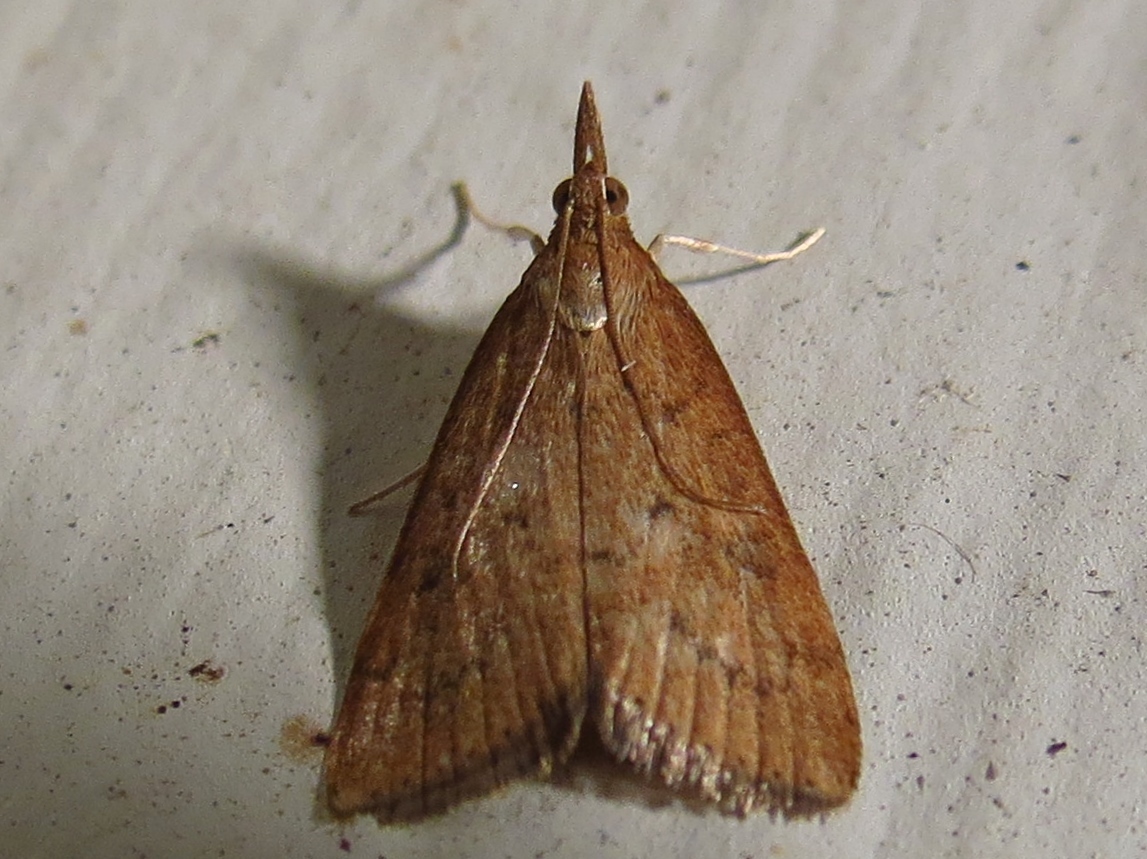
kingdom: Animalia
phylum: Arthropoda
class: Insecta
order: Lepidoptera
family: Crambidae
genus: Udea
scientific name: Udea rubigalis
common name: Celery leaftier moth
